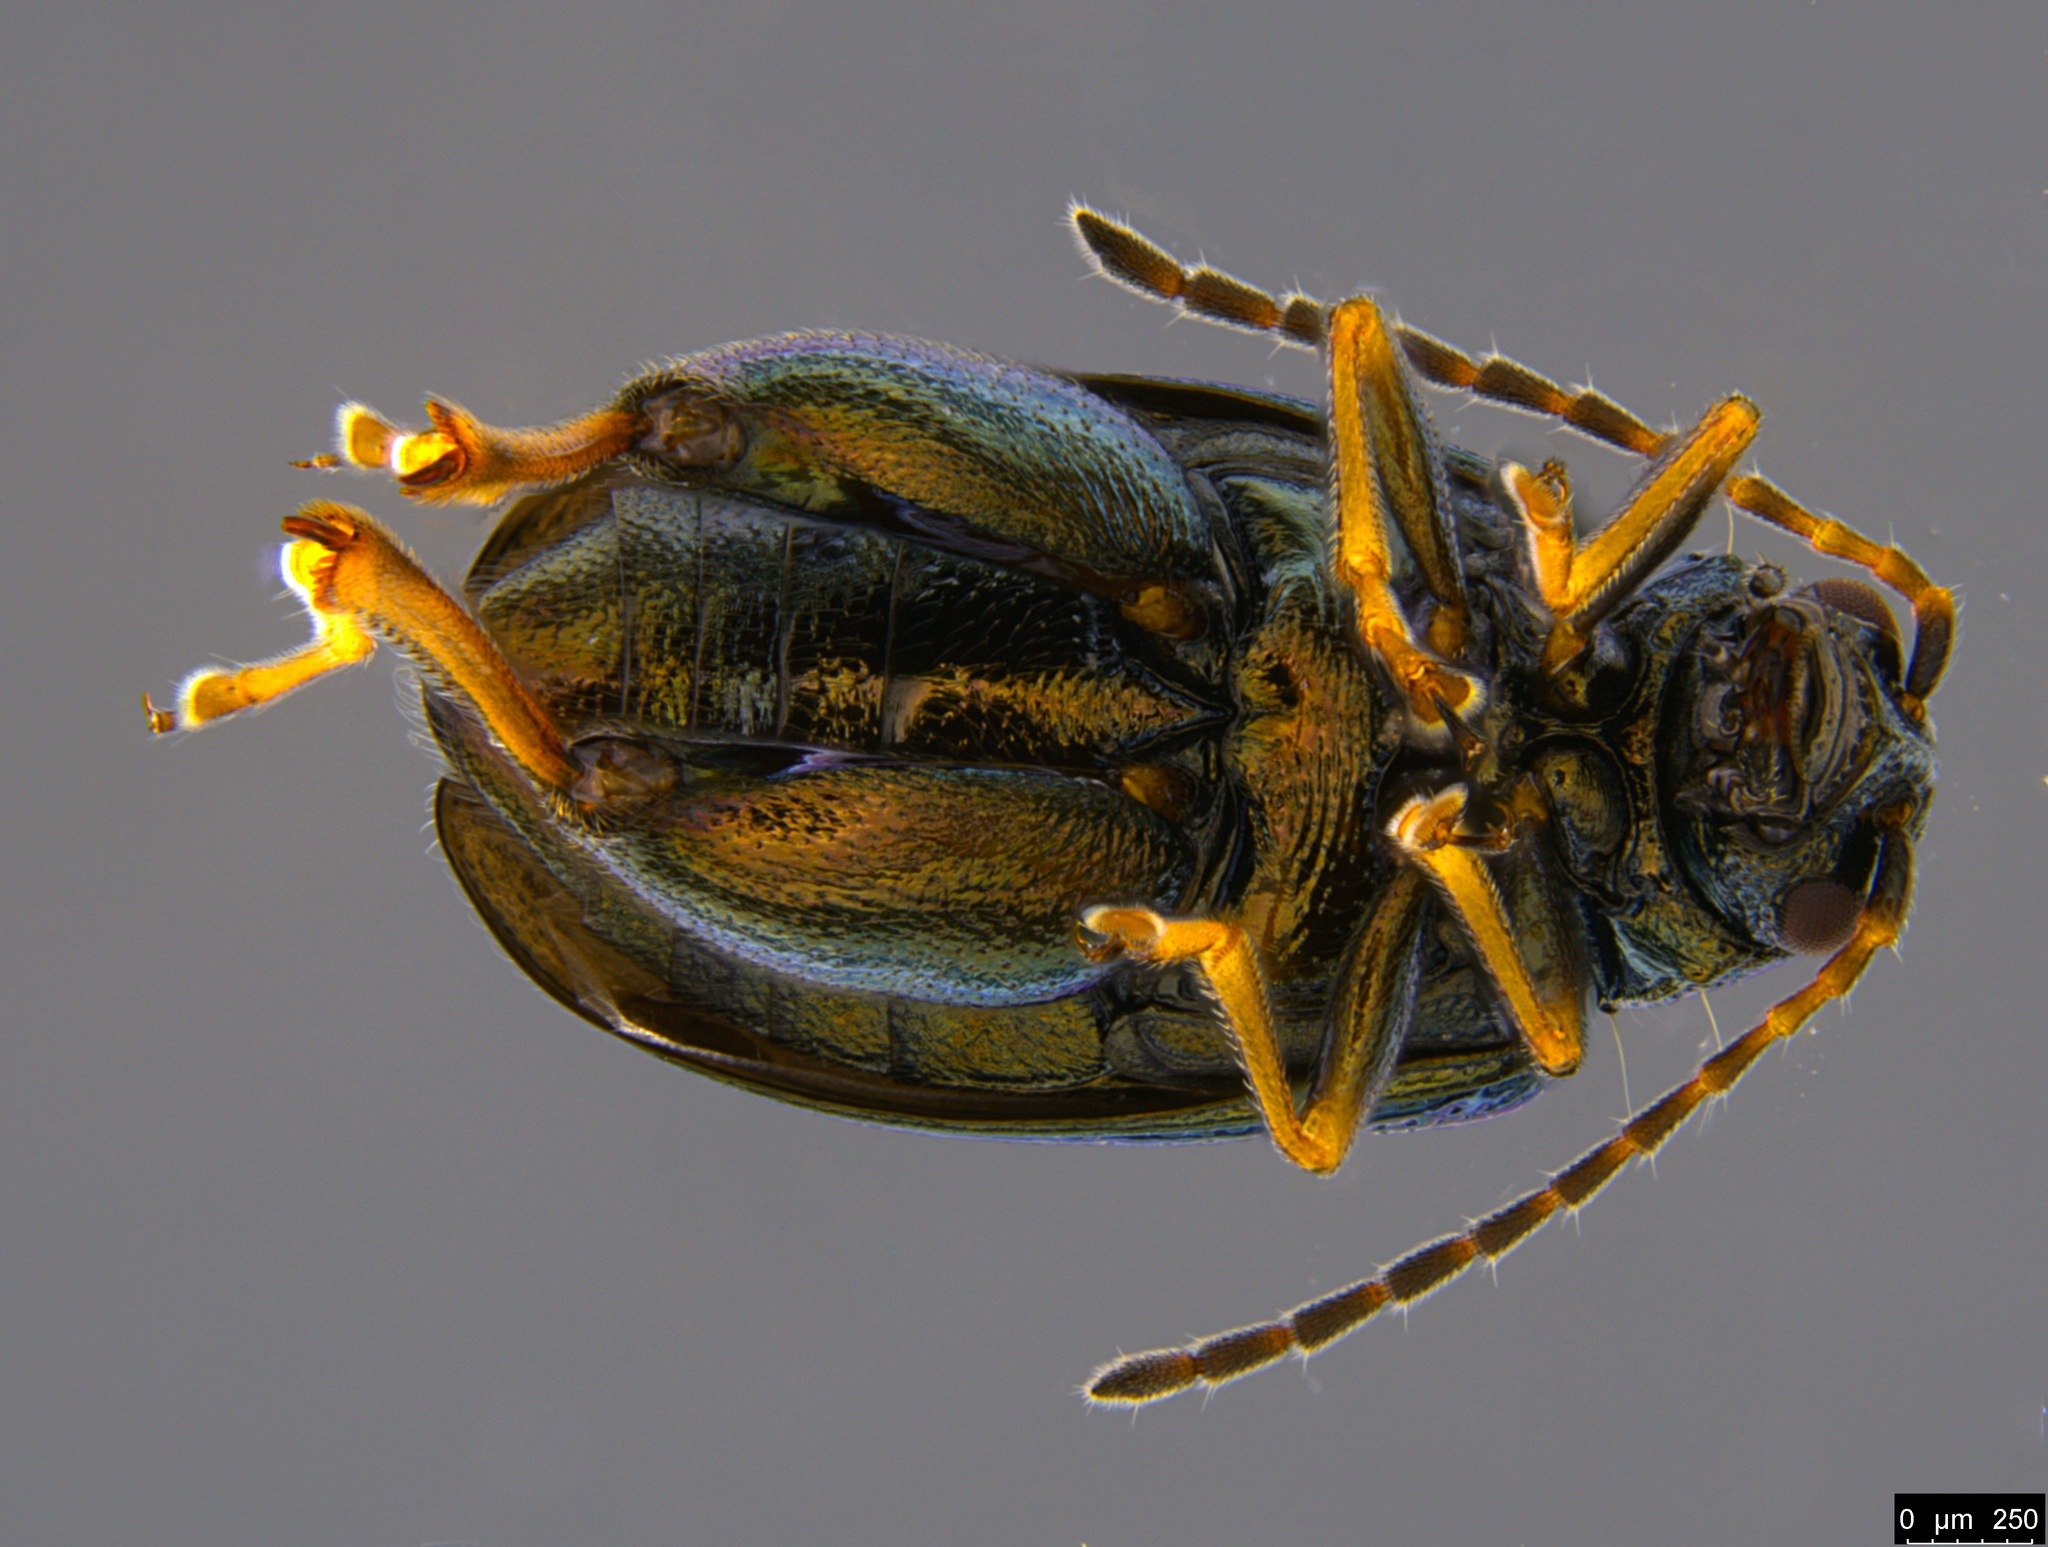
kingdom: Animalia
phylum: Arthropoda
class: Insecta
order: Coleoptera
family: Chrysomelidae
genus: Longitarsus
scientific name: Longitarsus echii
